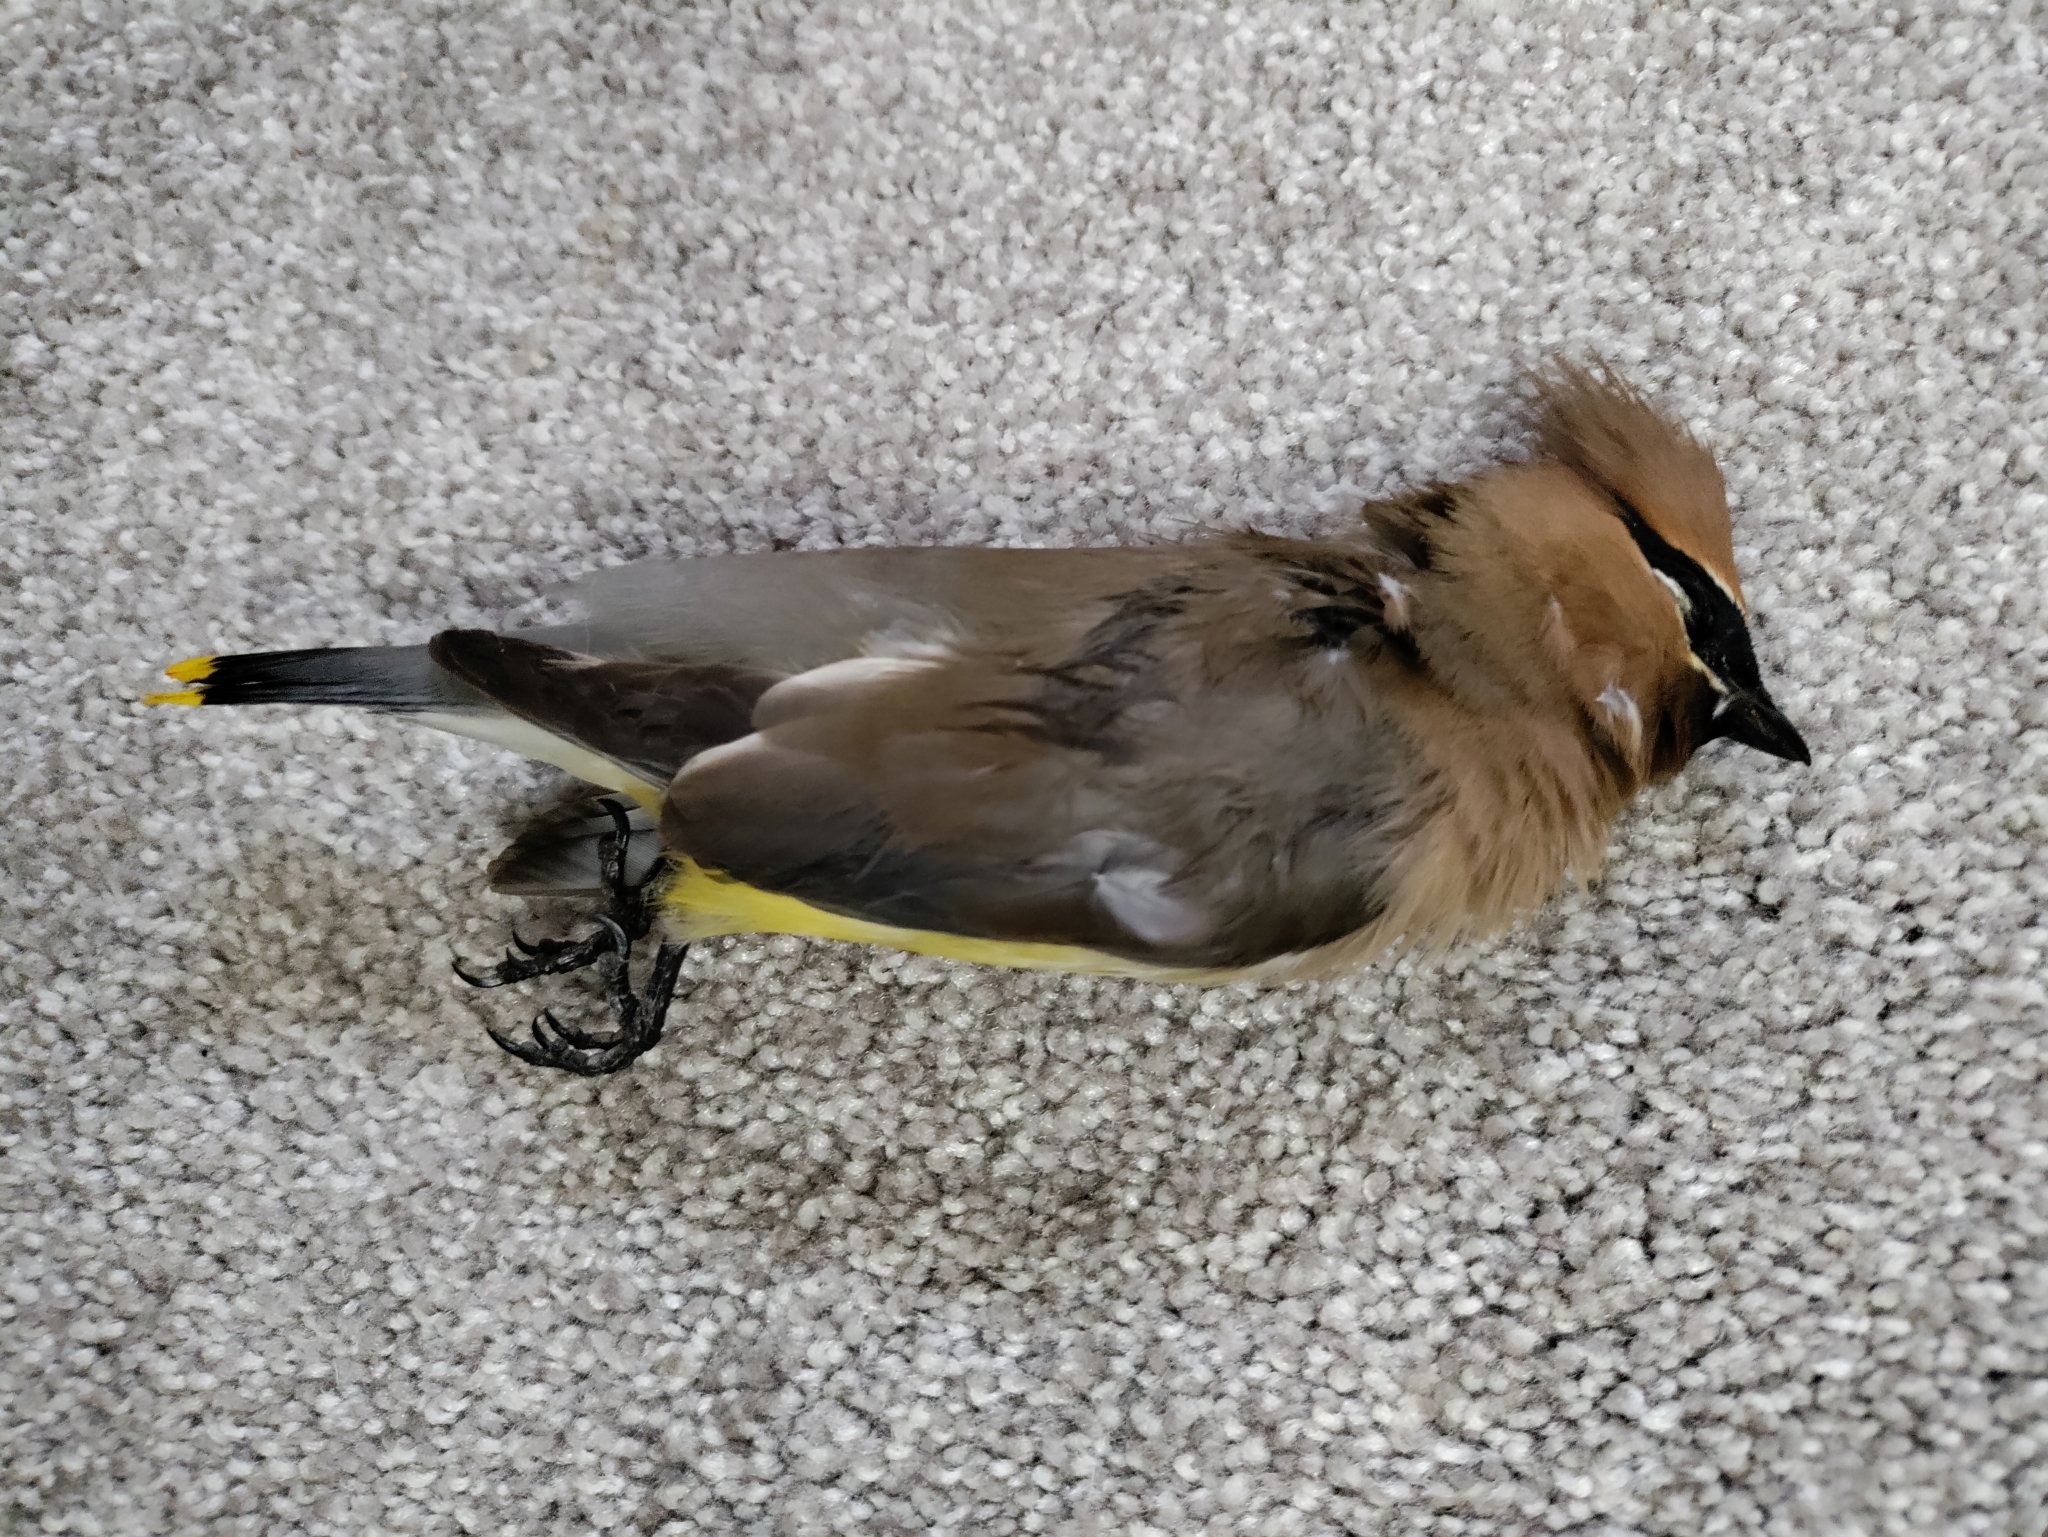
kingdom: Animalia
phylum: Chordata
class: Aves
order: Passeriformes
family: Bombycillidae
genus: Bombycilla
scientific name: Bombycilla cedrorum
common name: Cedar waxwing
